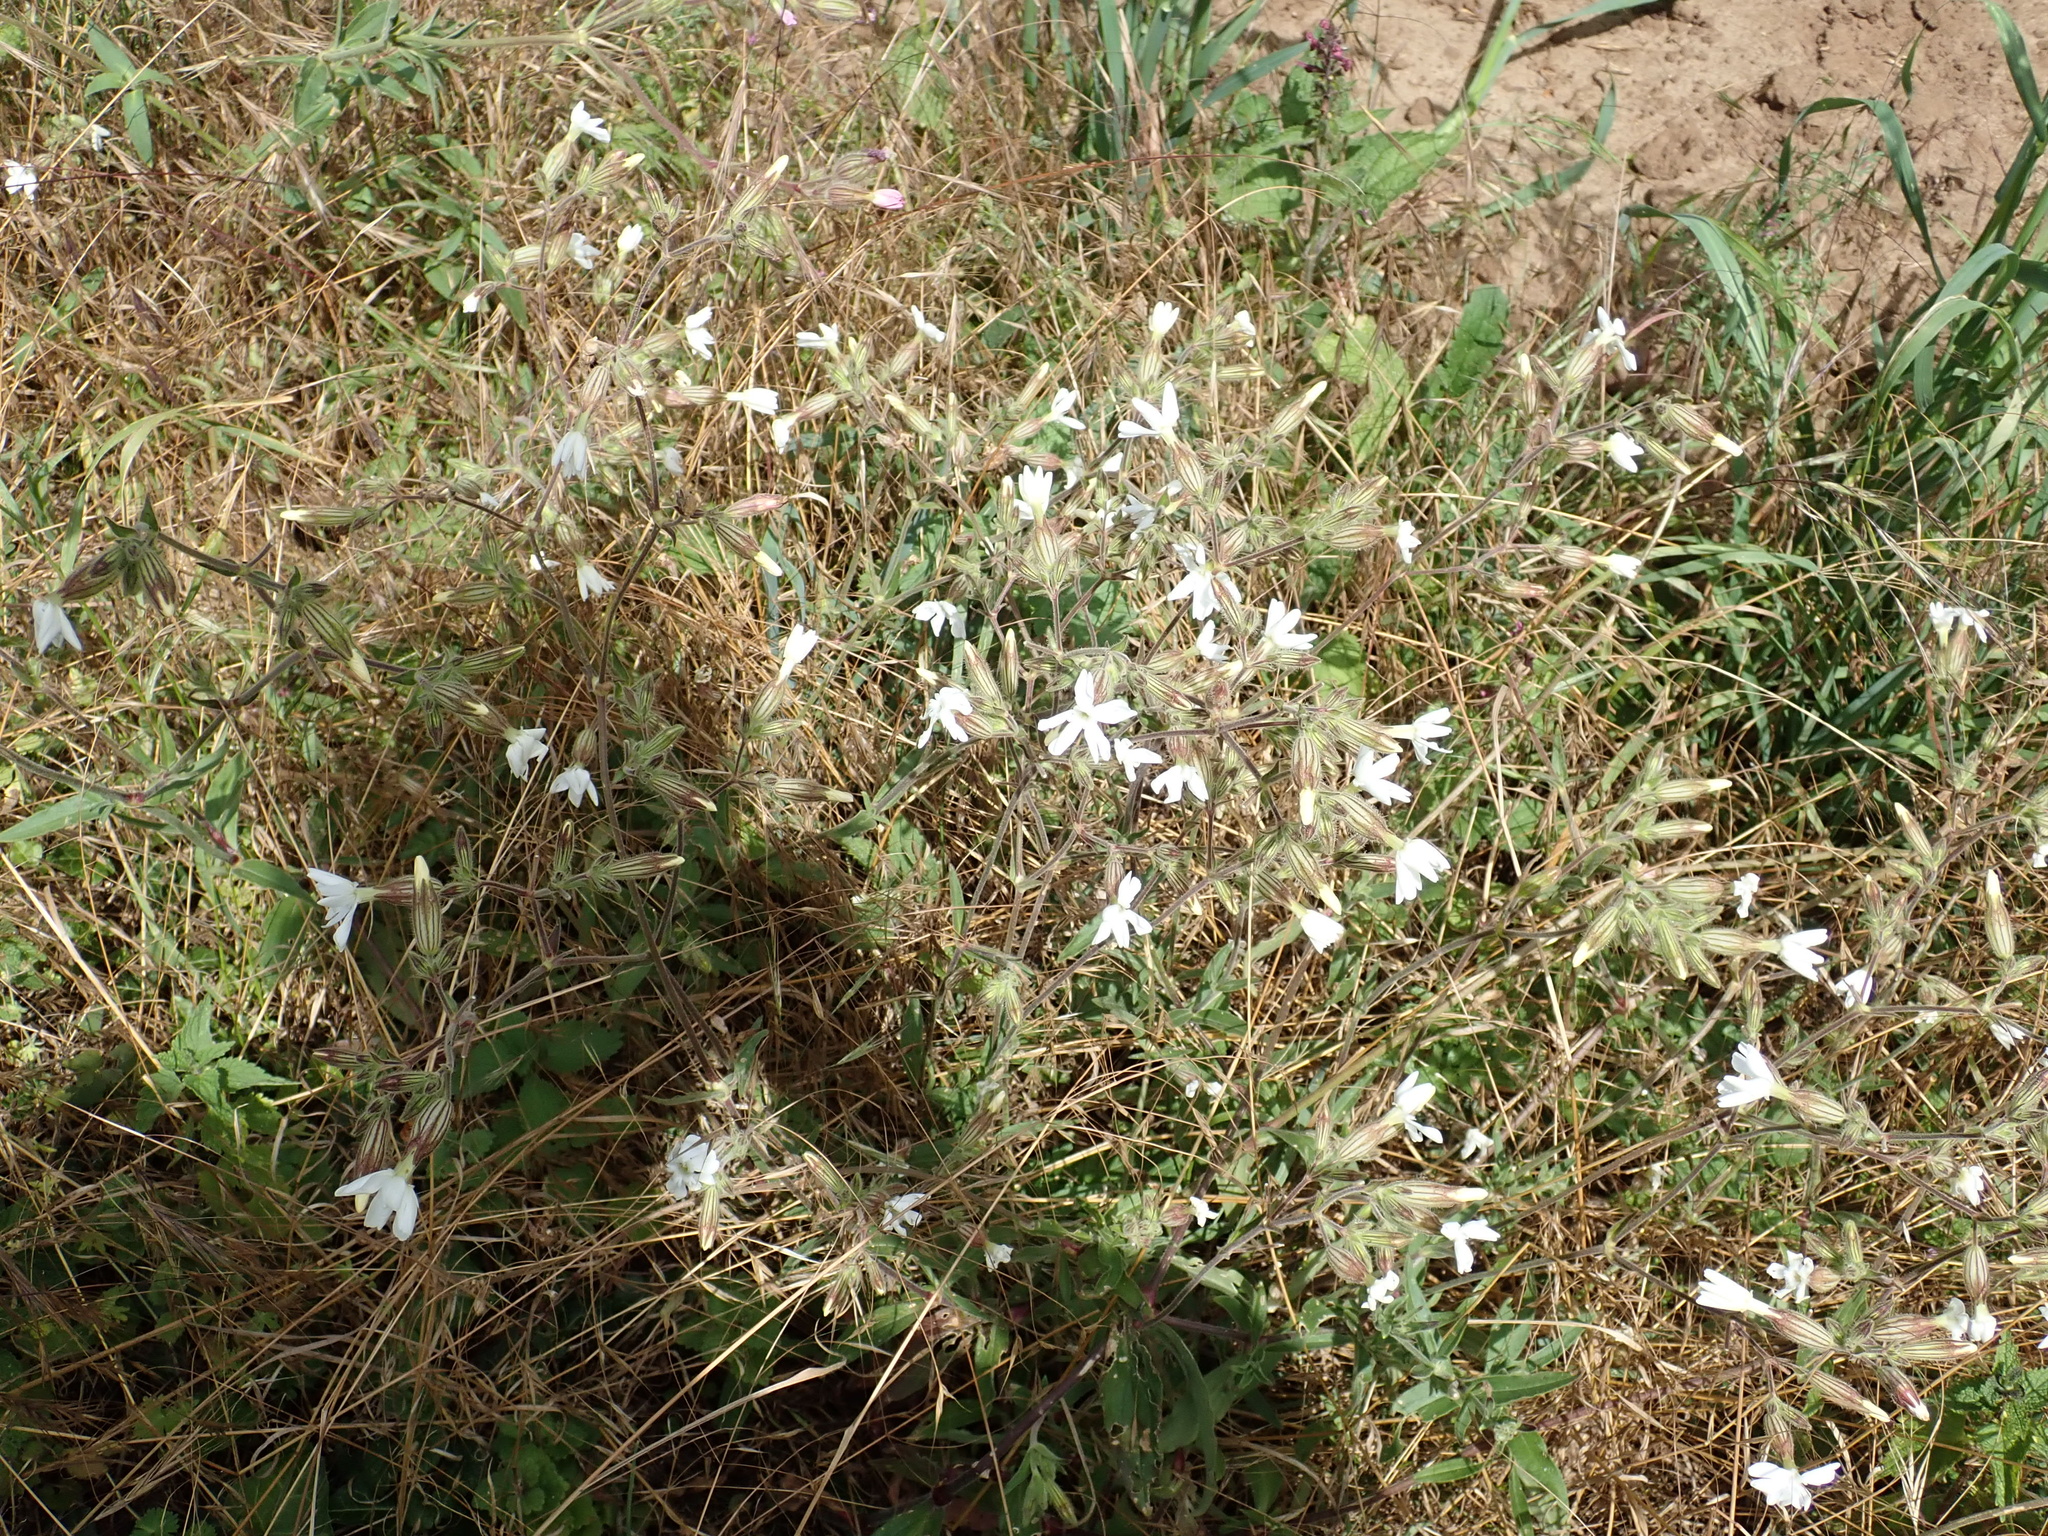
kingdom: Plantae
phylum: Tracheophyta
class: Magnoliopsida
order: Caryophyllales
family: Caryophyllaceae
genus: Silene
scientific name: Silene latifolia
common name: White campion
